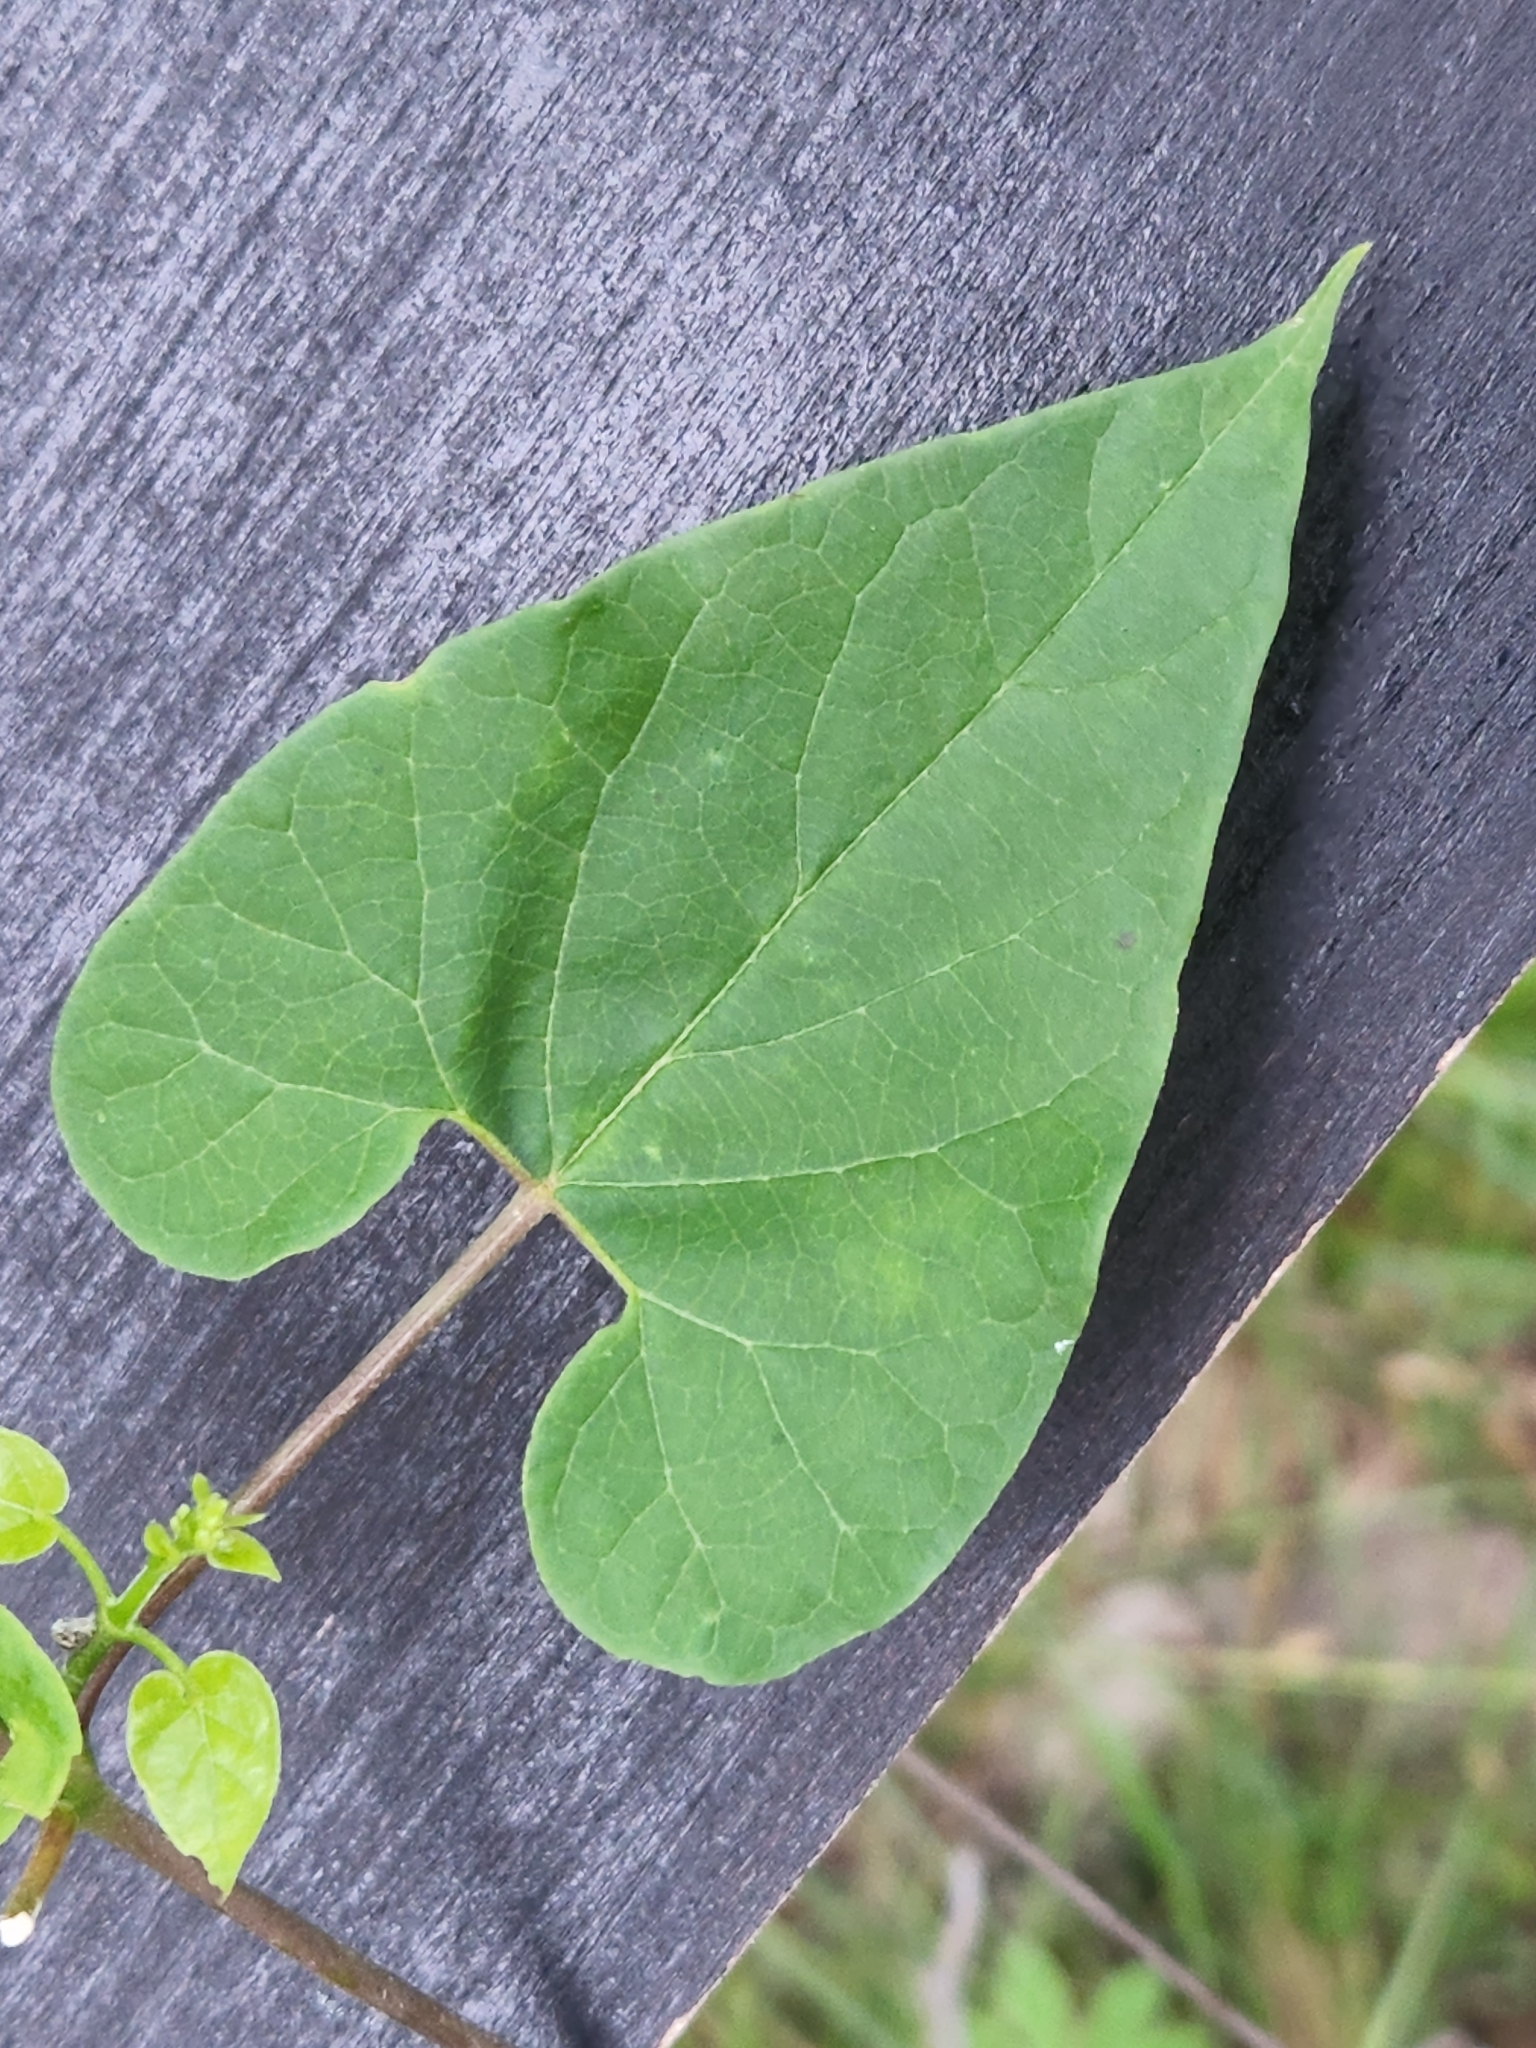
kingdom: Plantae
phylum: Tracheophyta
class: Magnoliopsida
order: Gentianales
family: Apocynaceae
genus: Cynanchum
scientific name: Cynanchum racemosum
